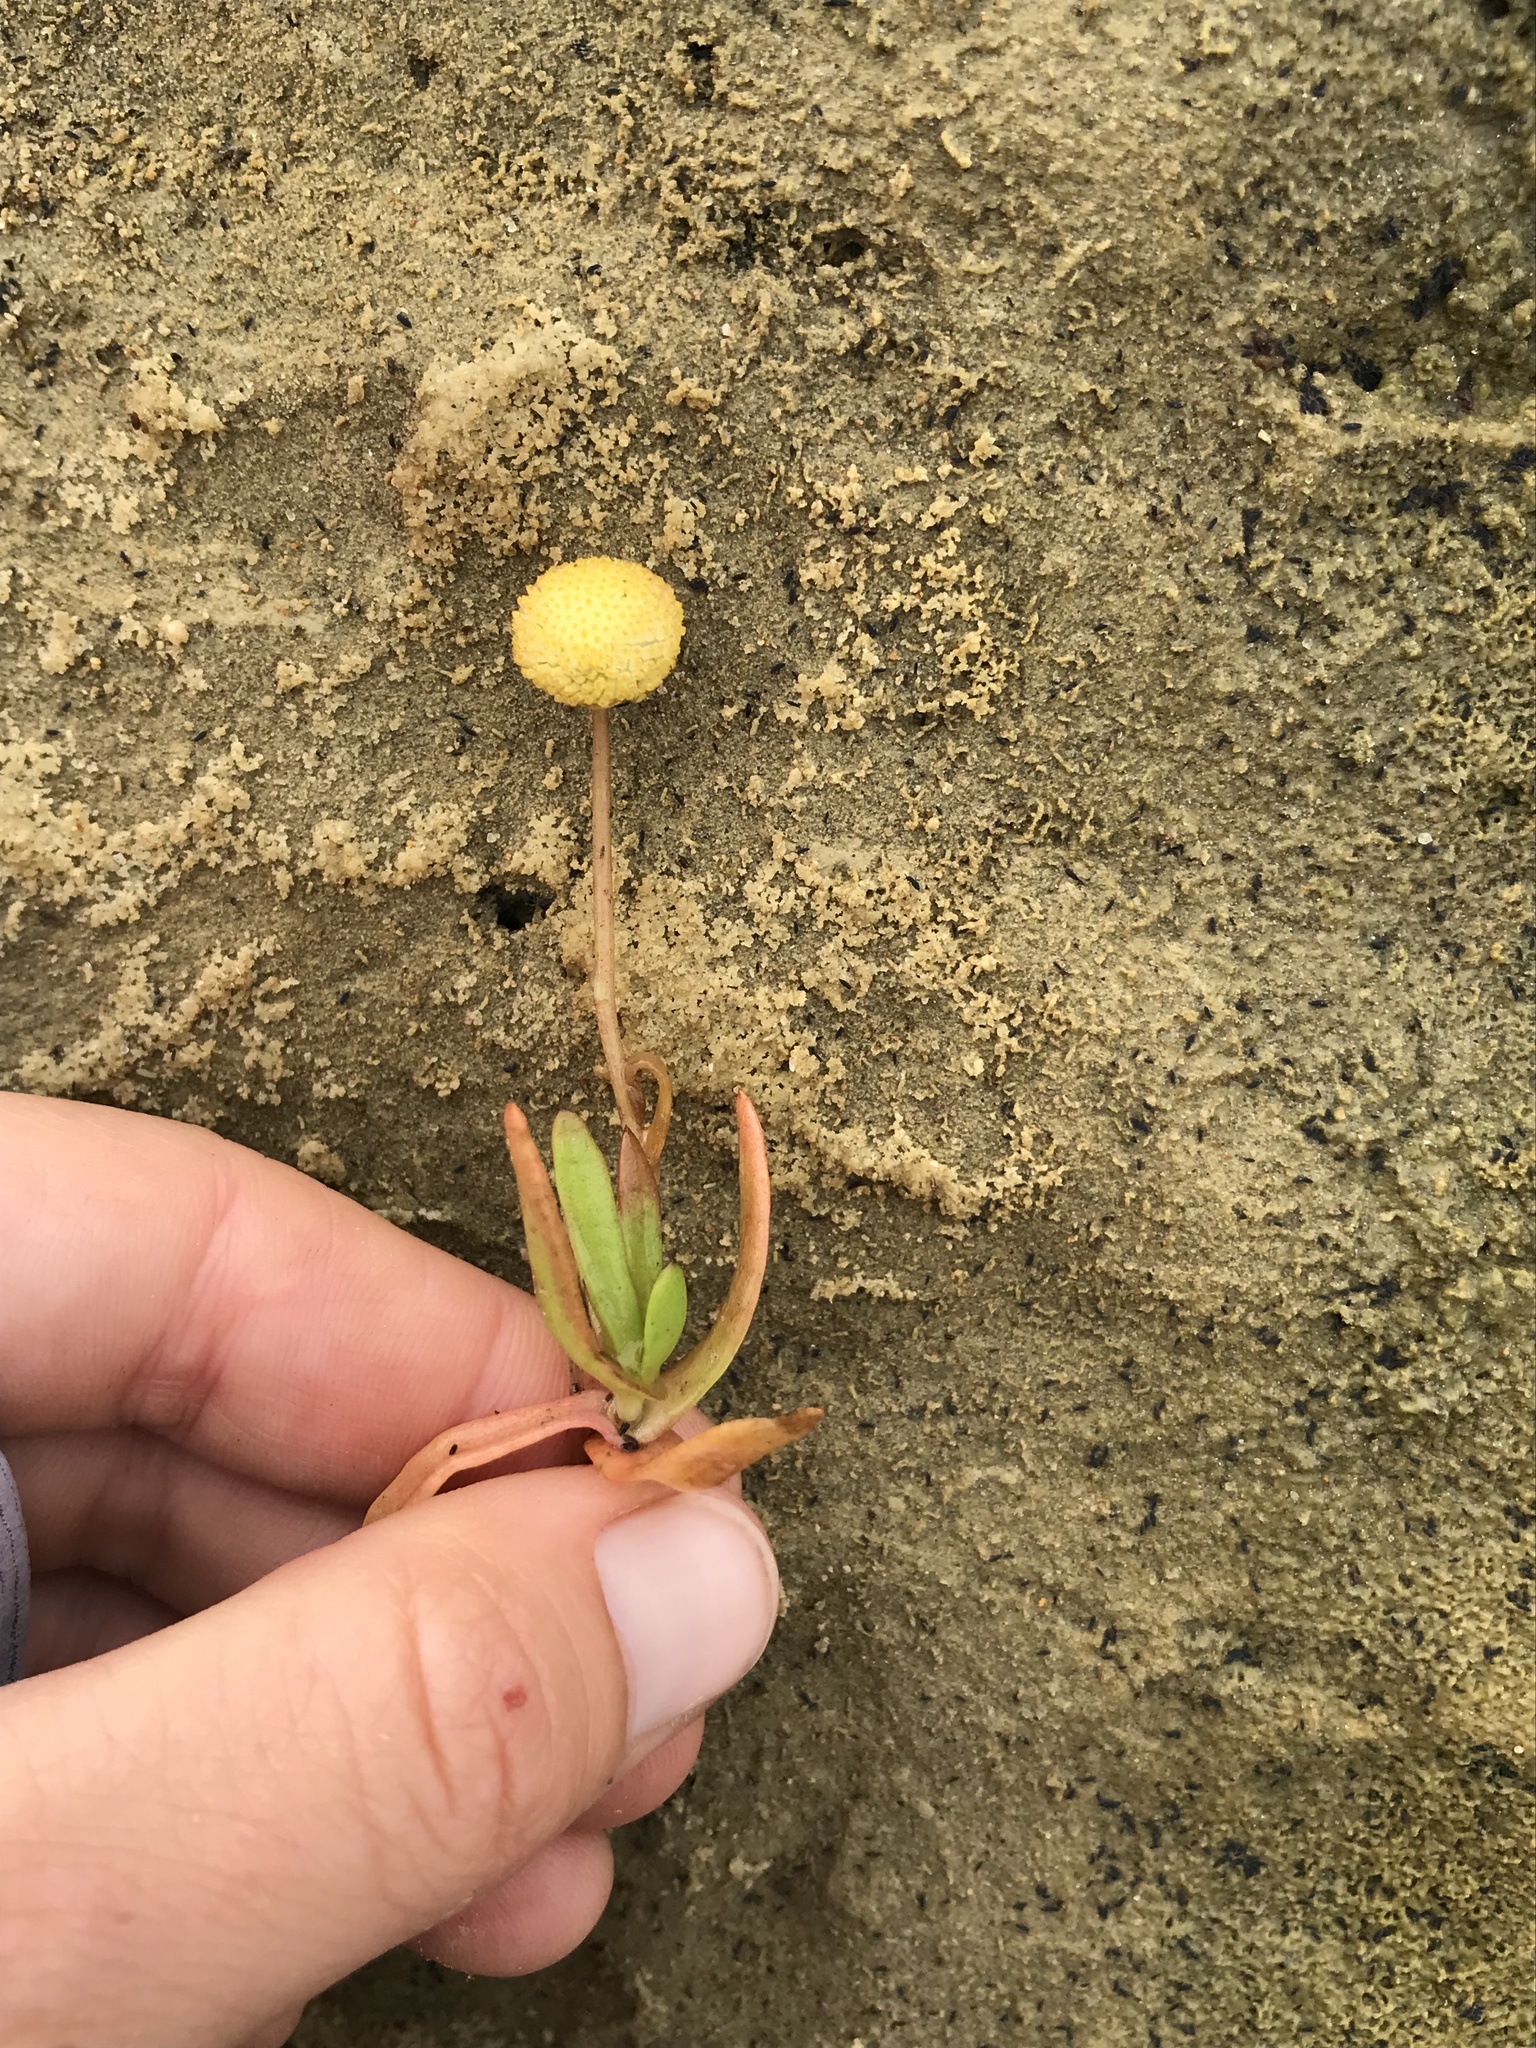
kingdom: Plantae
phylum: Tracheophyta
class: Magnoliopsida
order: Asterales
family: Asteraceae
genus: Cotula
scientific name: Cotula coronopifolia
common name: Buttonweed
